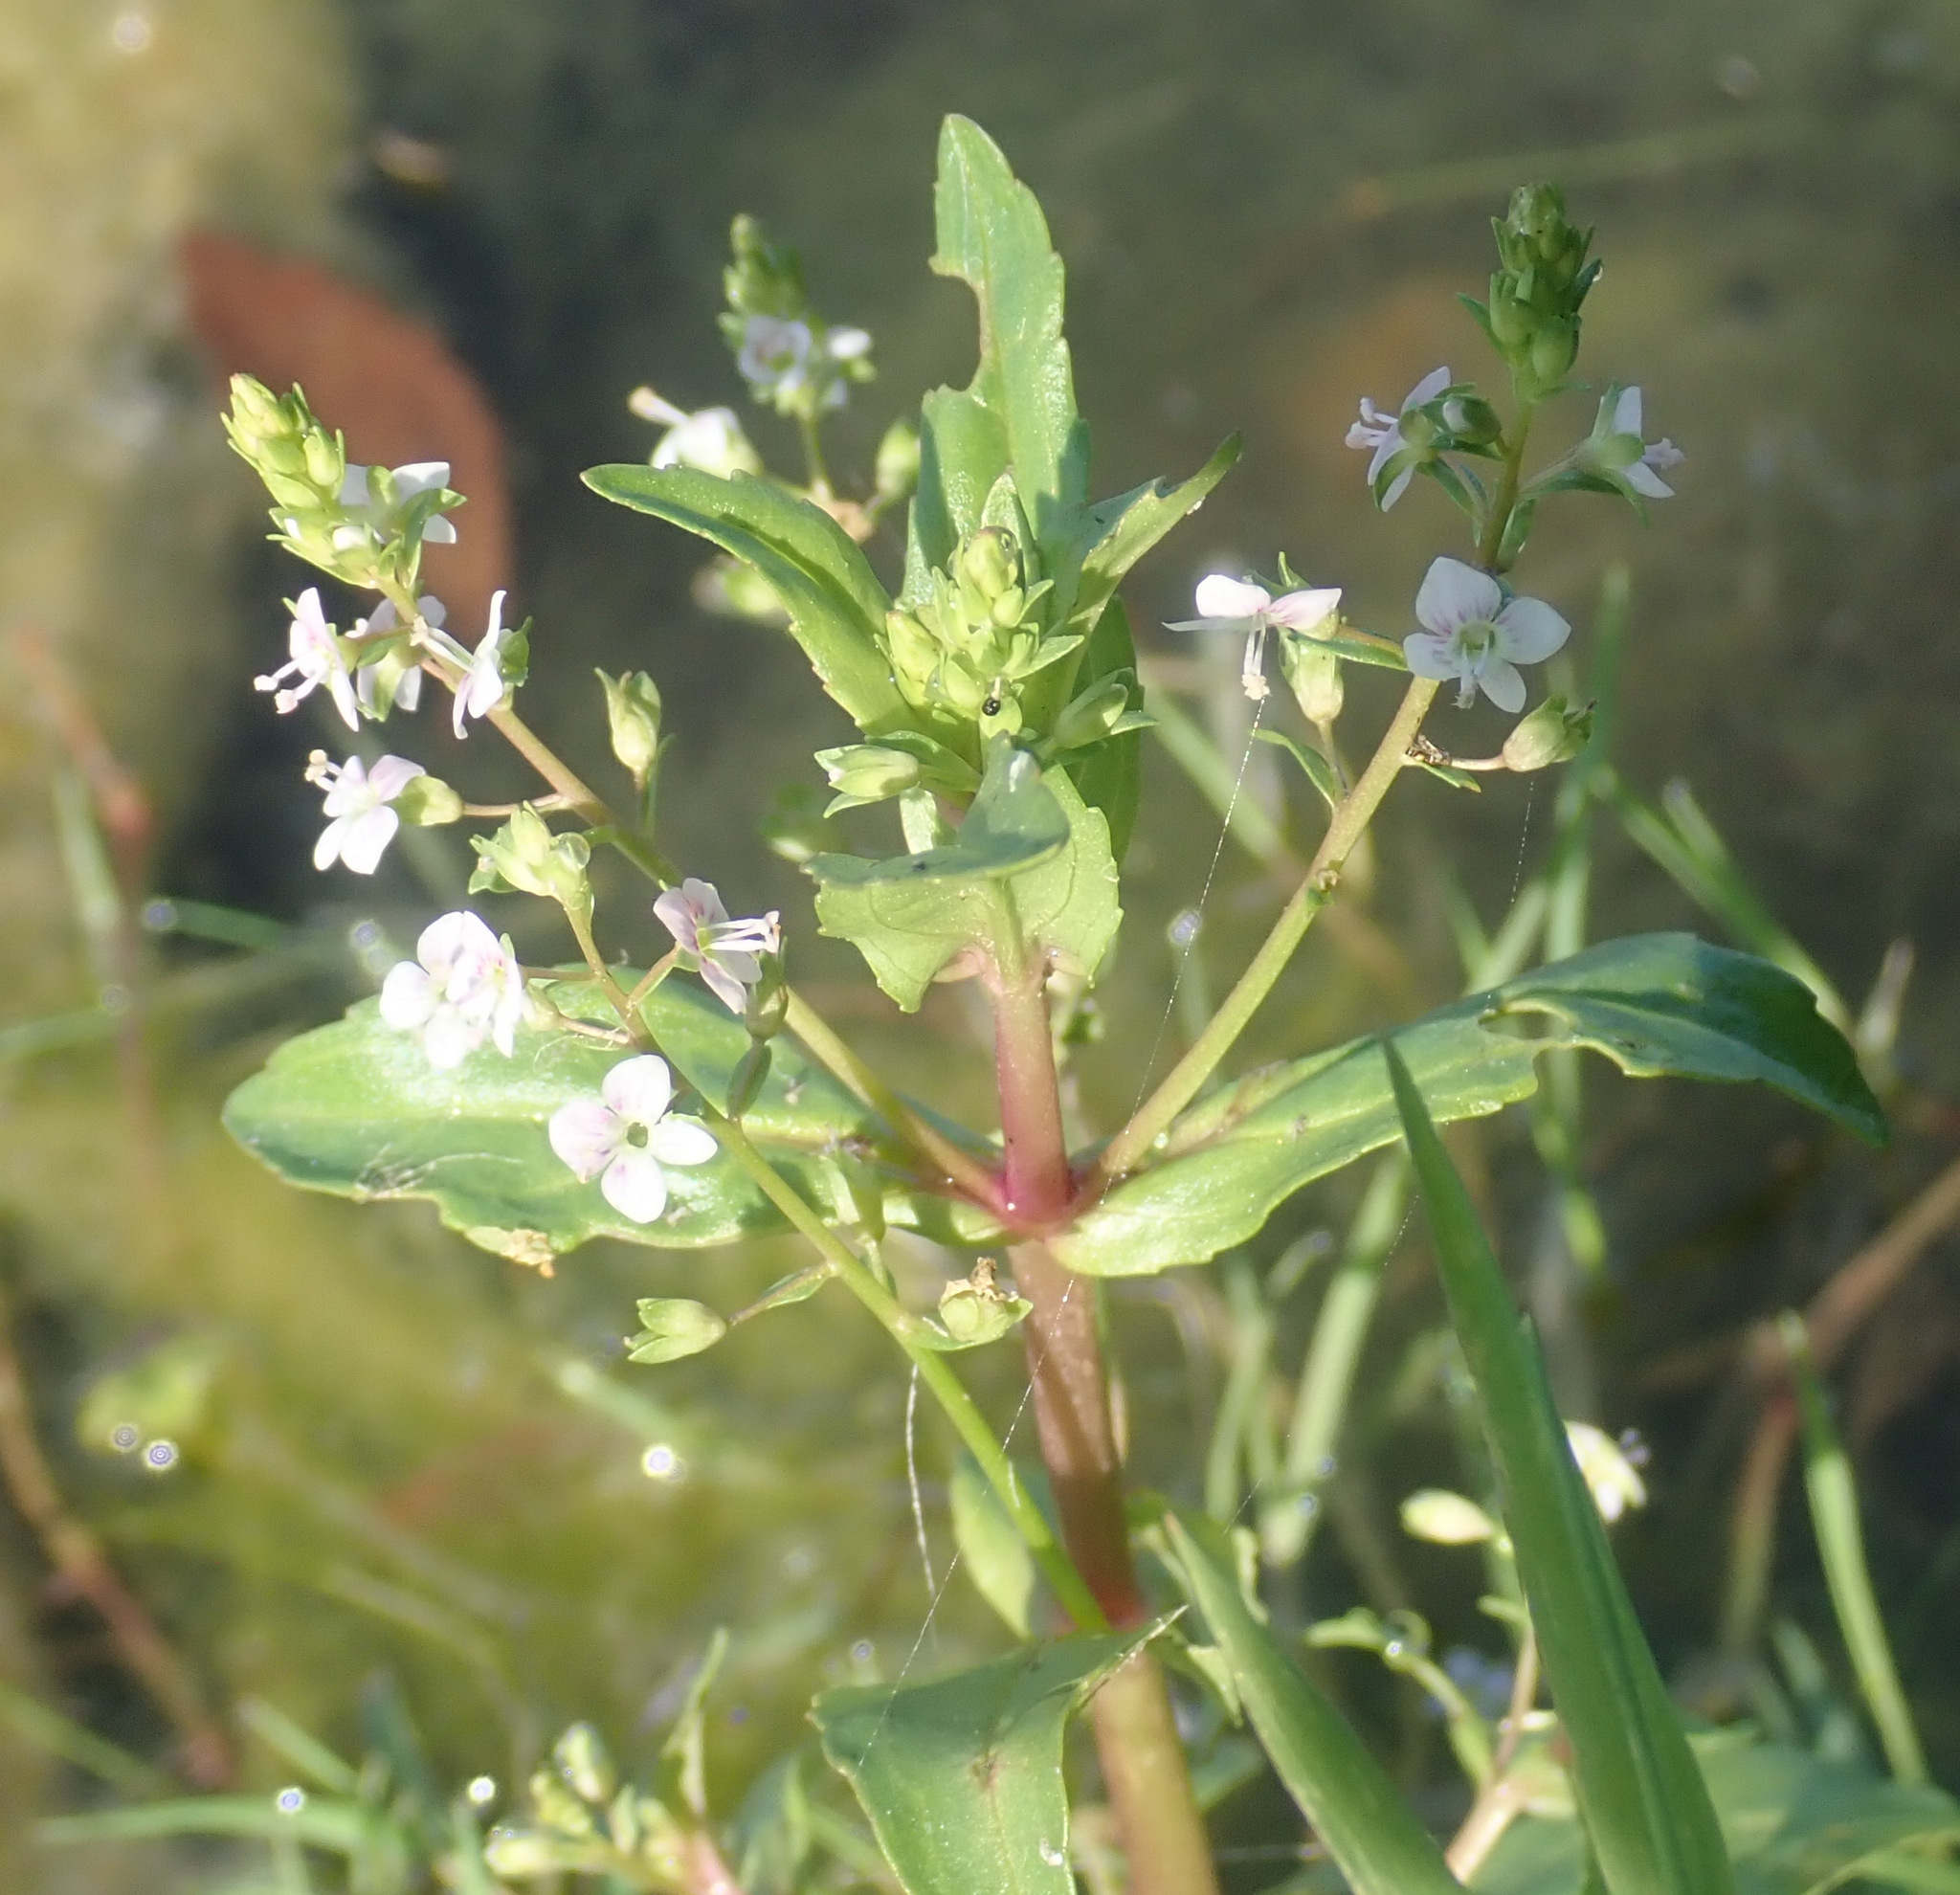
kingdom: Plantae
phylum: Tracheophyta
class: Magnoliopsida
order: Lamiales
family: Plantaginaceae
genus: Veronica
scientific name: Veronica catenata
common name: Pink water-speedwell
